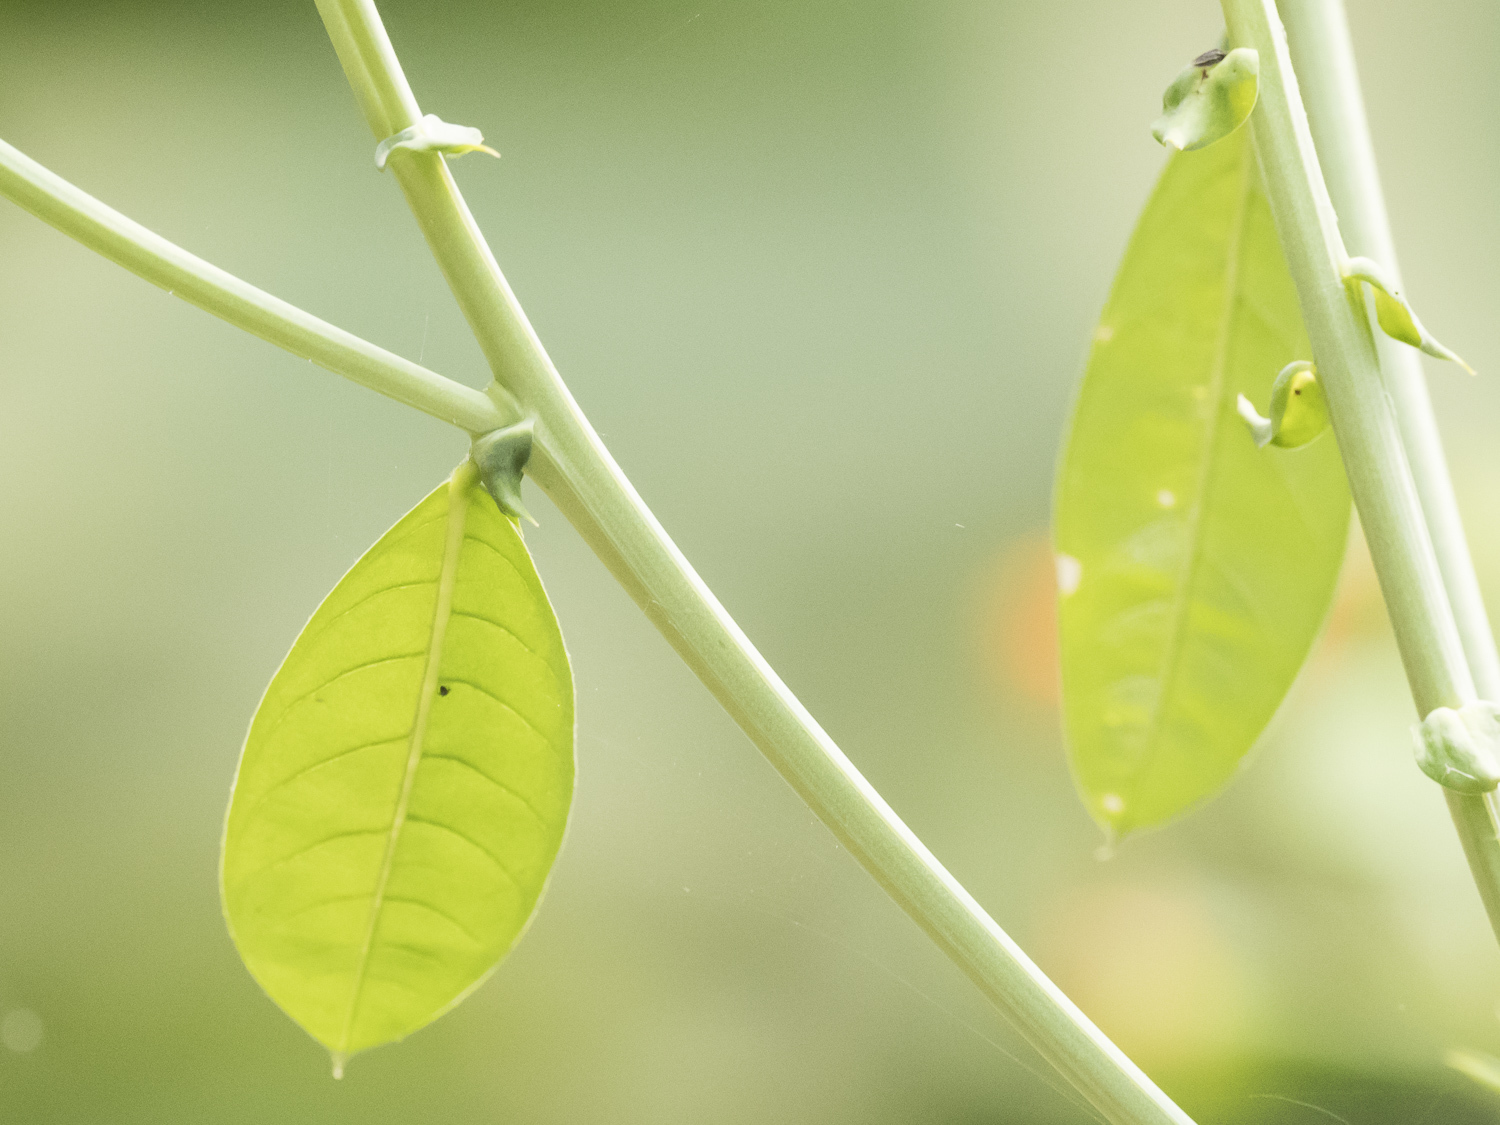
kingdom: Plantae
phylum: Tracheophyta
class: Magnoliopsida
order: Fabales
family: Fabaceae
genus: Crotalaria
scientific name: Crotalaria pallida
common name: Smooth rattlebox
